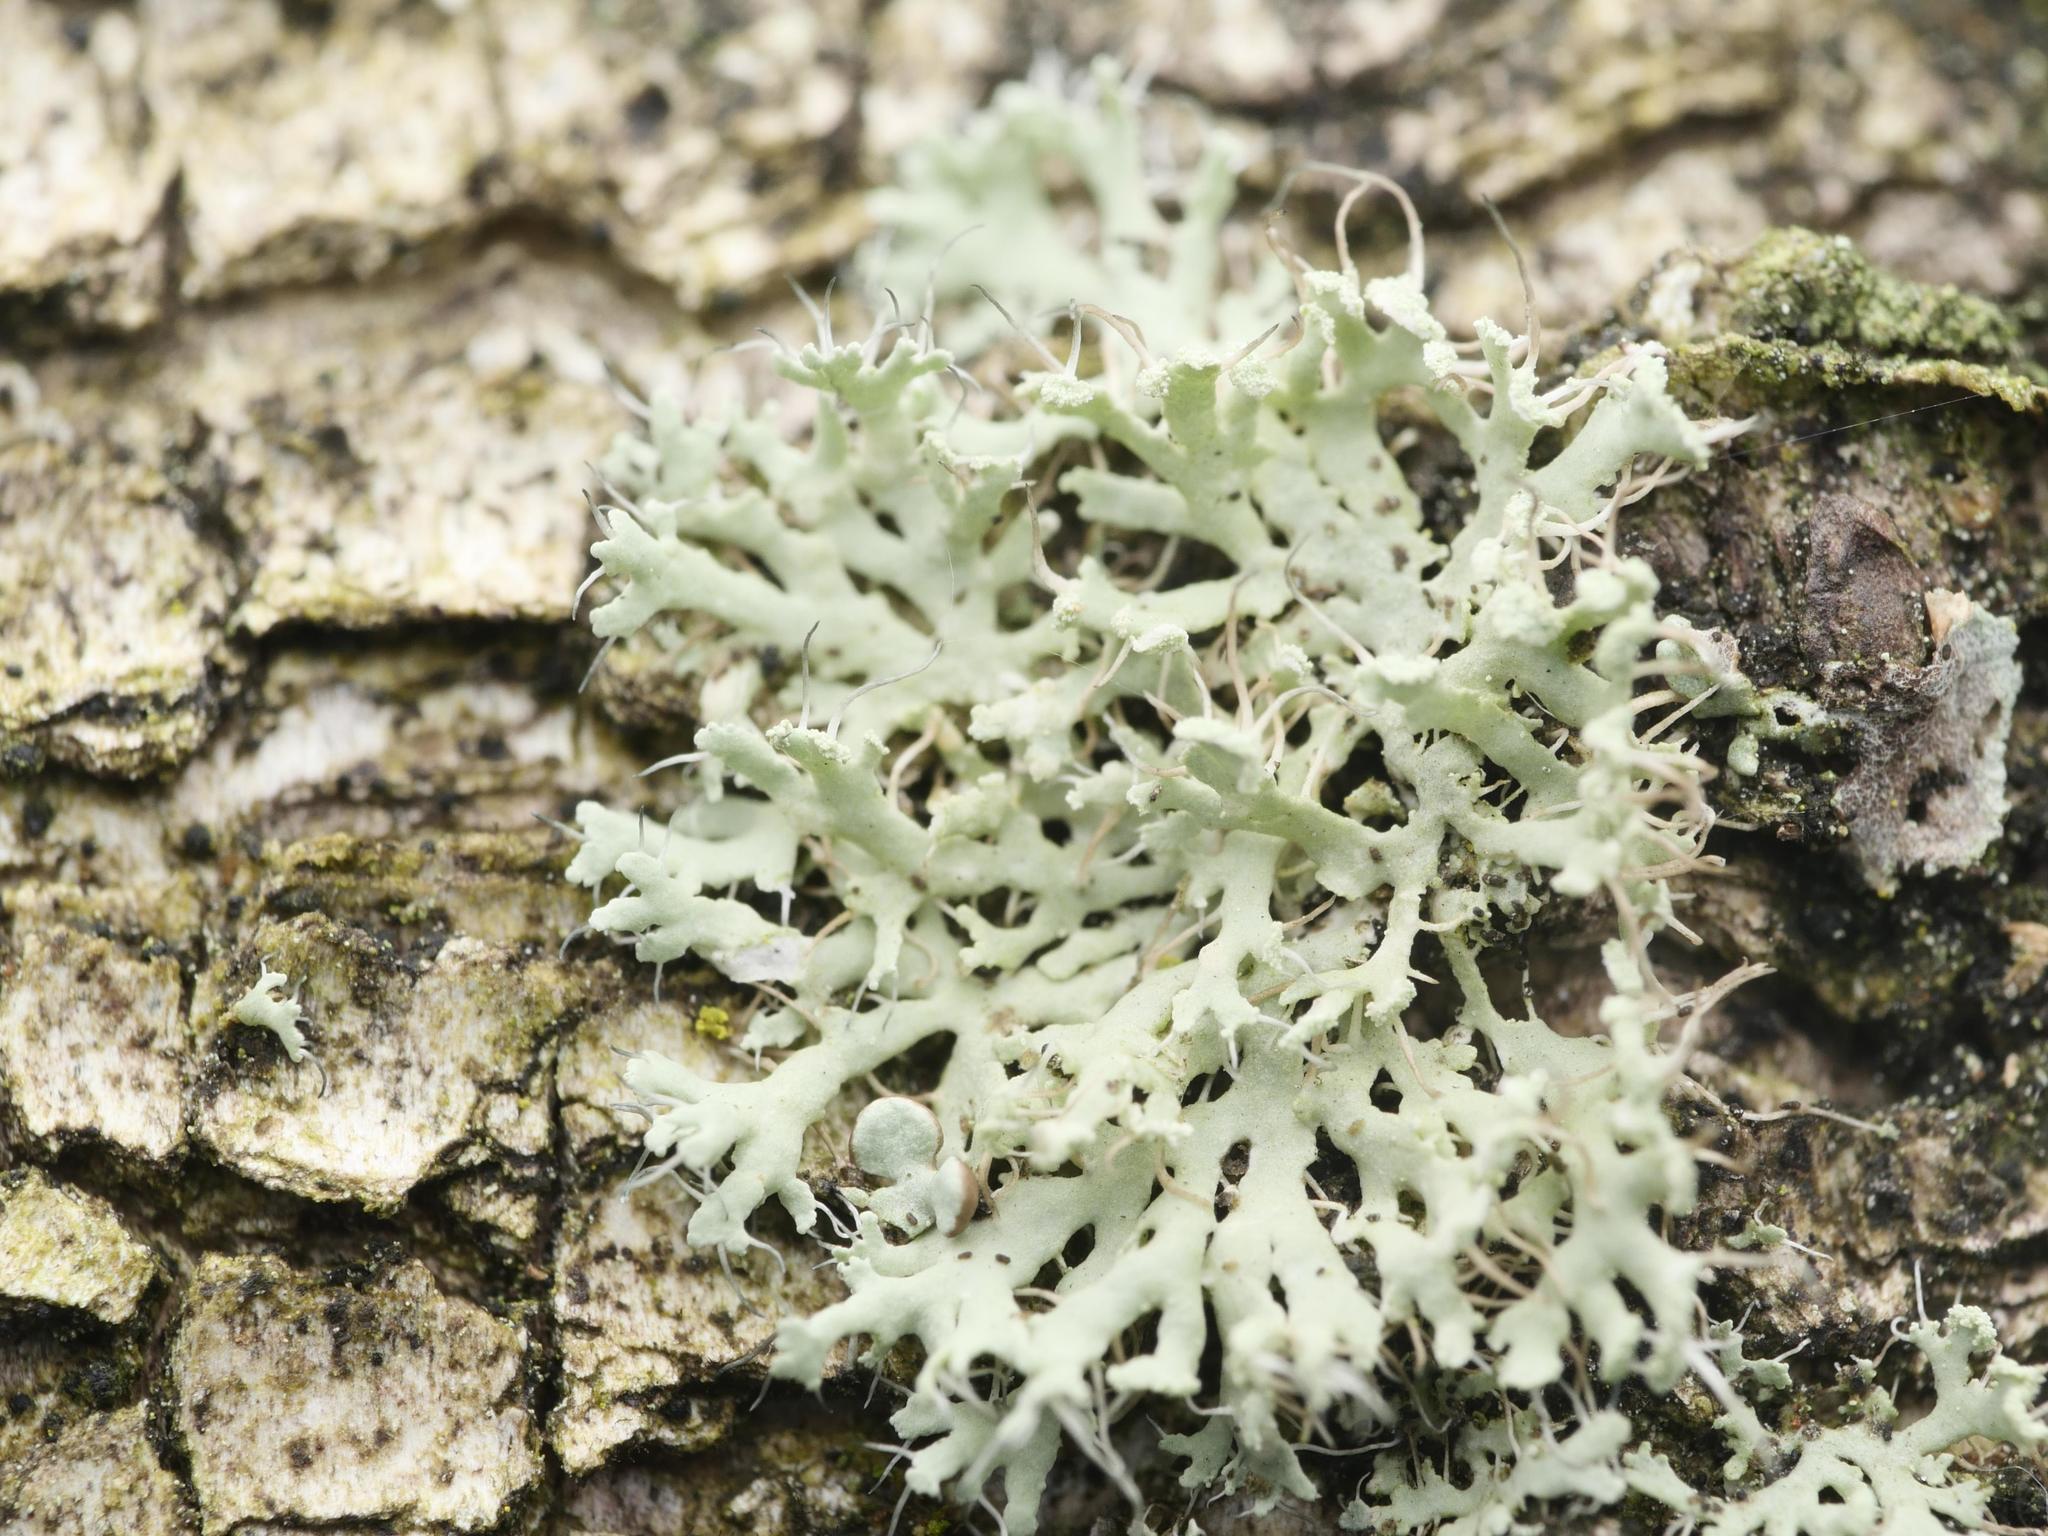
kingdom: Fungi
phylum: Ascomycota
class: Lecanoromycetes
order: Caliciales
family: Physciaceae
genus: Physcia
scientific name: Physcia tenella
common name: Fringed rosette lichen
